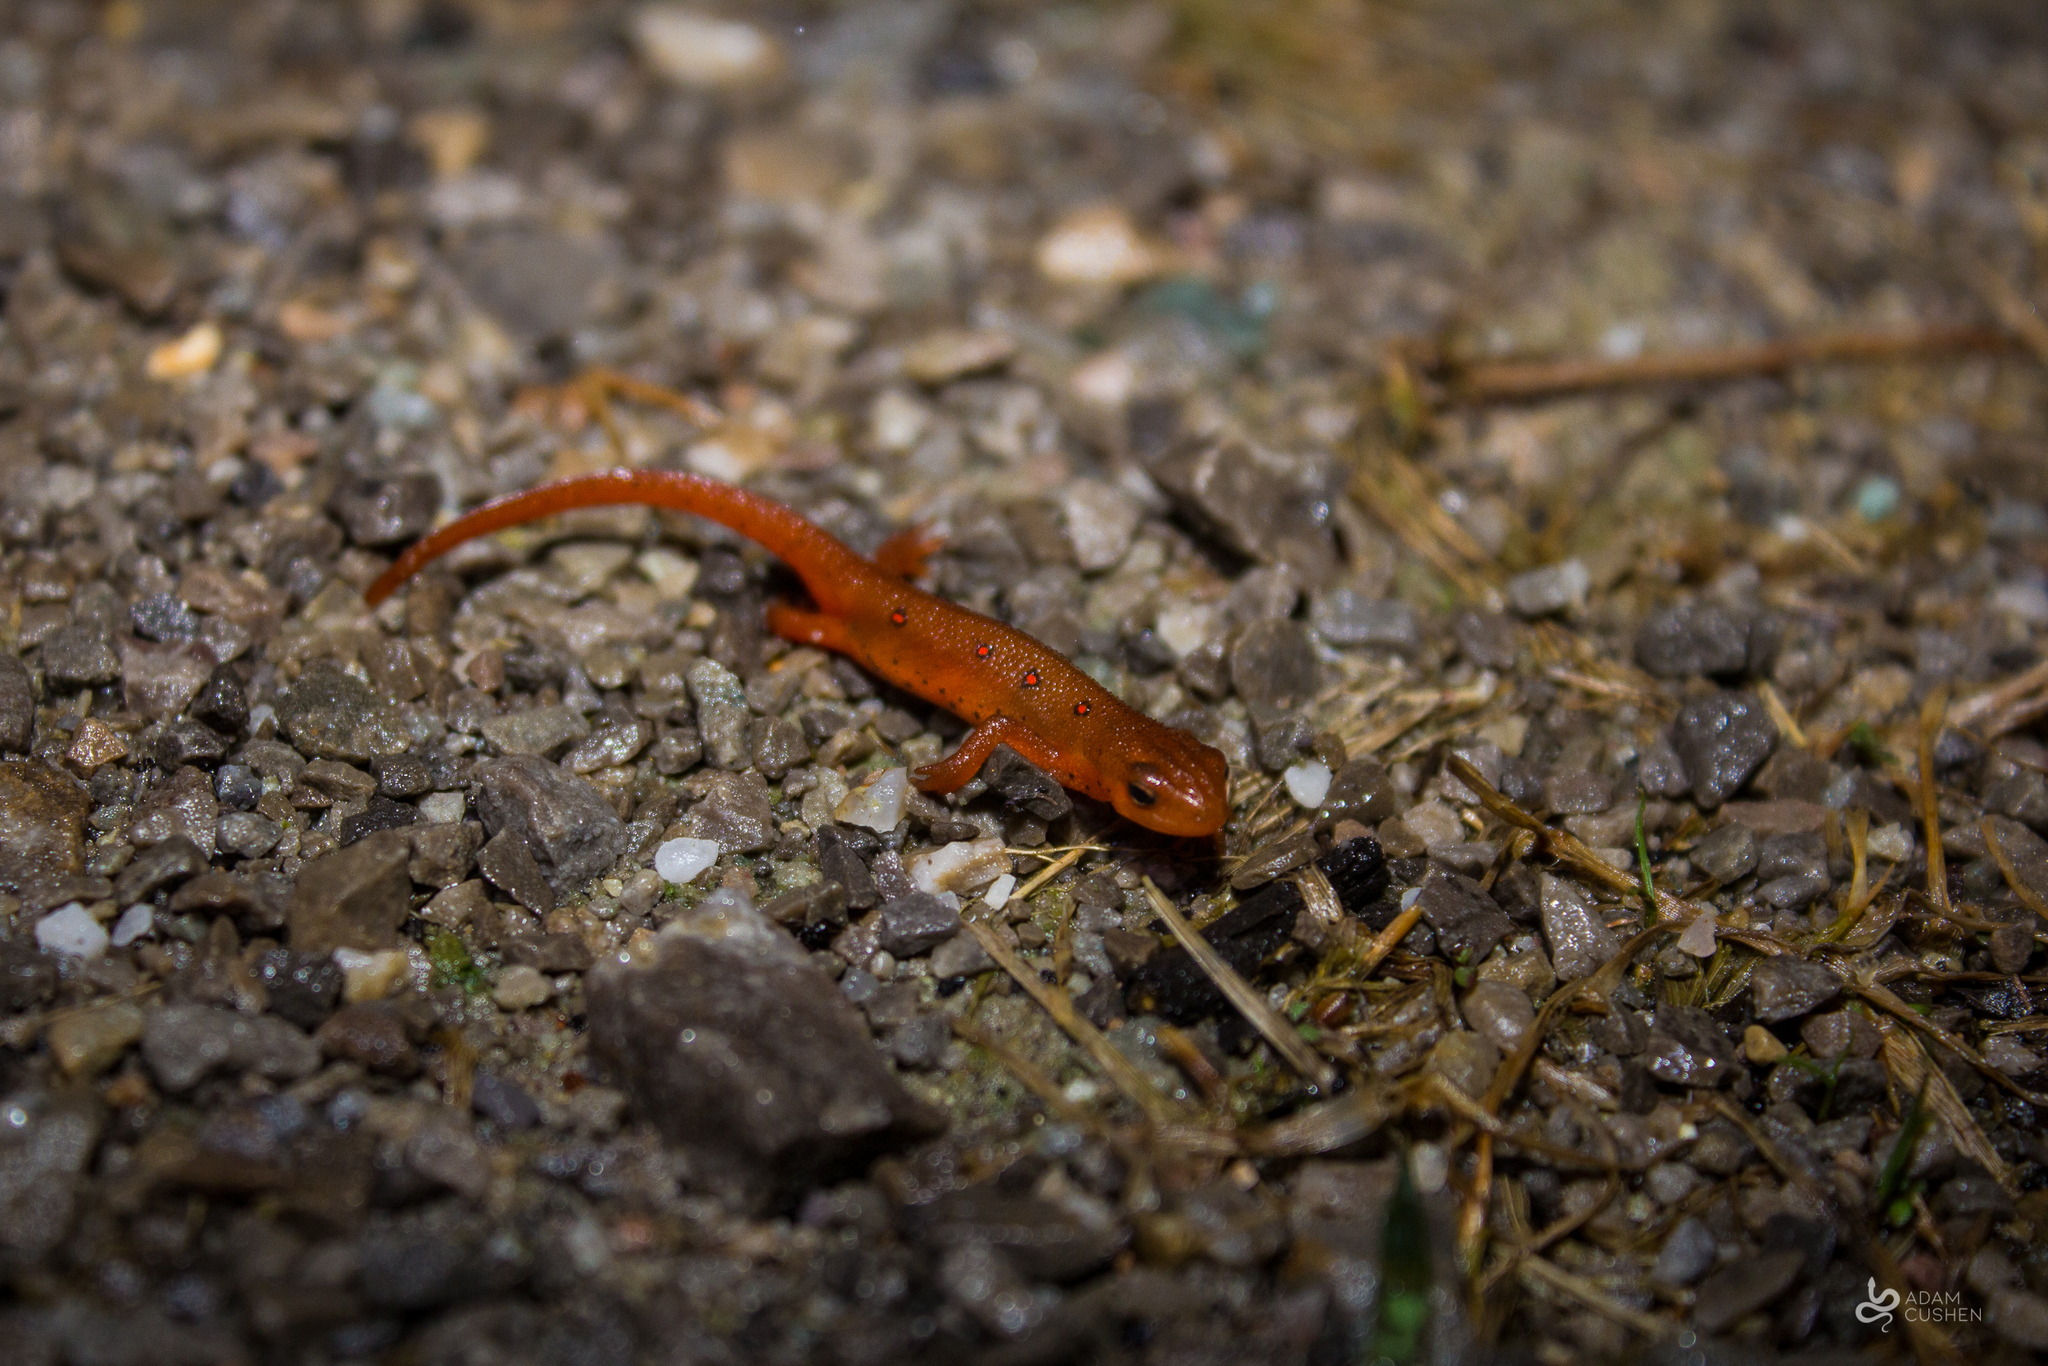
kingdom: Animalia
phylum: Chordata
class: Amphibia
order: Caudata
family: Salamandridae
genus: Notophthalmus
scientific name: Notophthalmus viridescens
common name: Eastern newt
